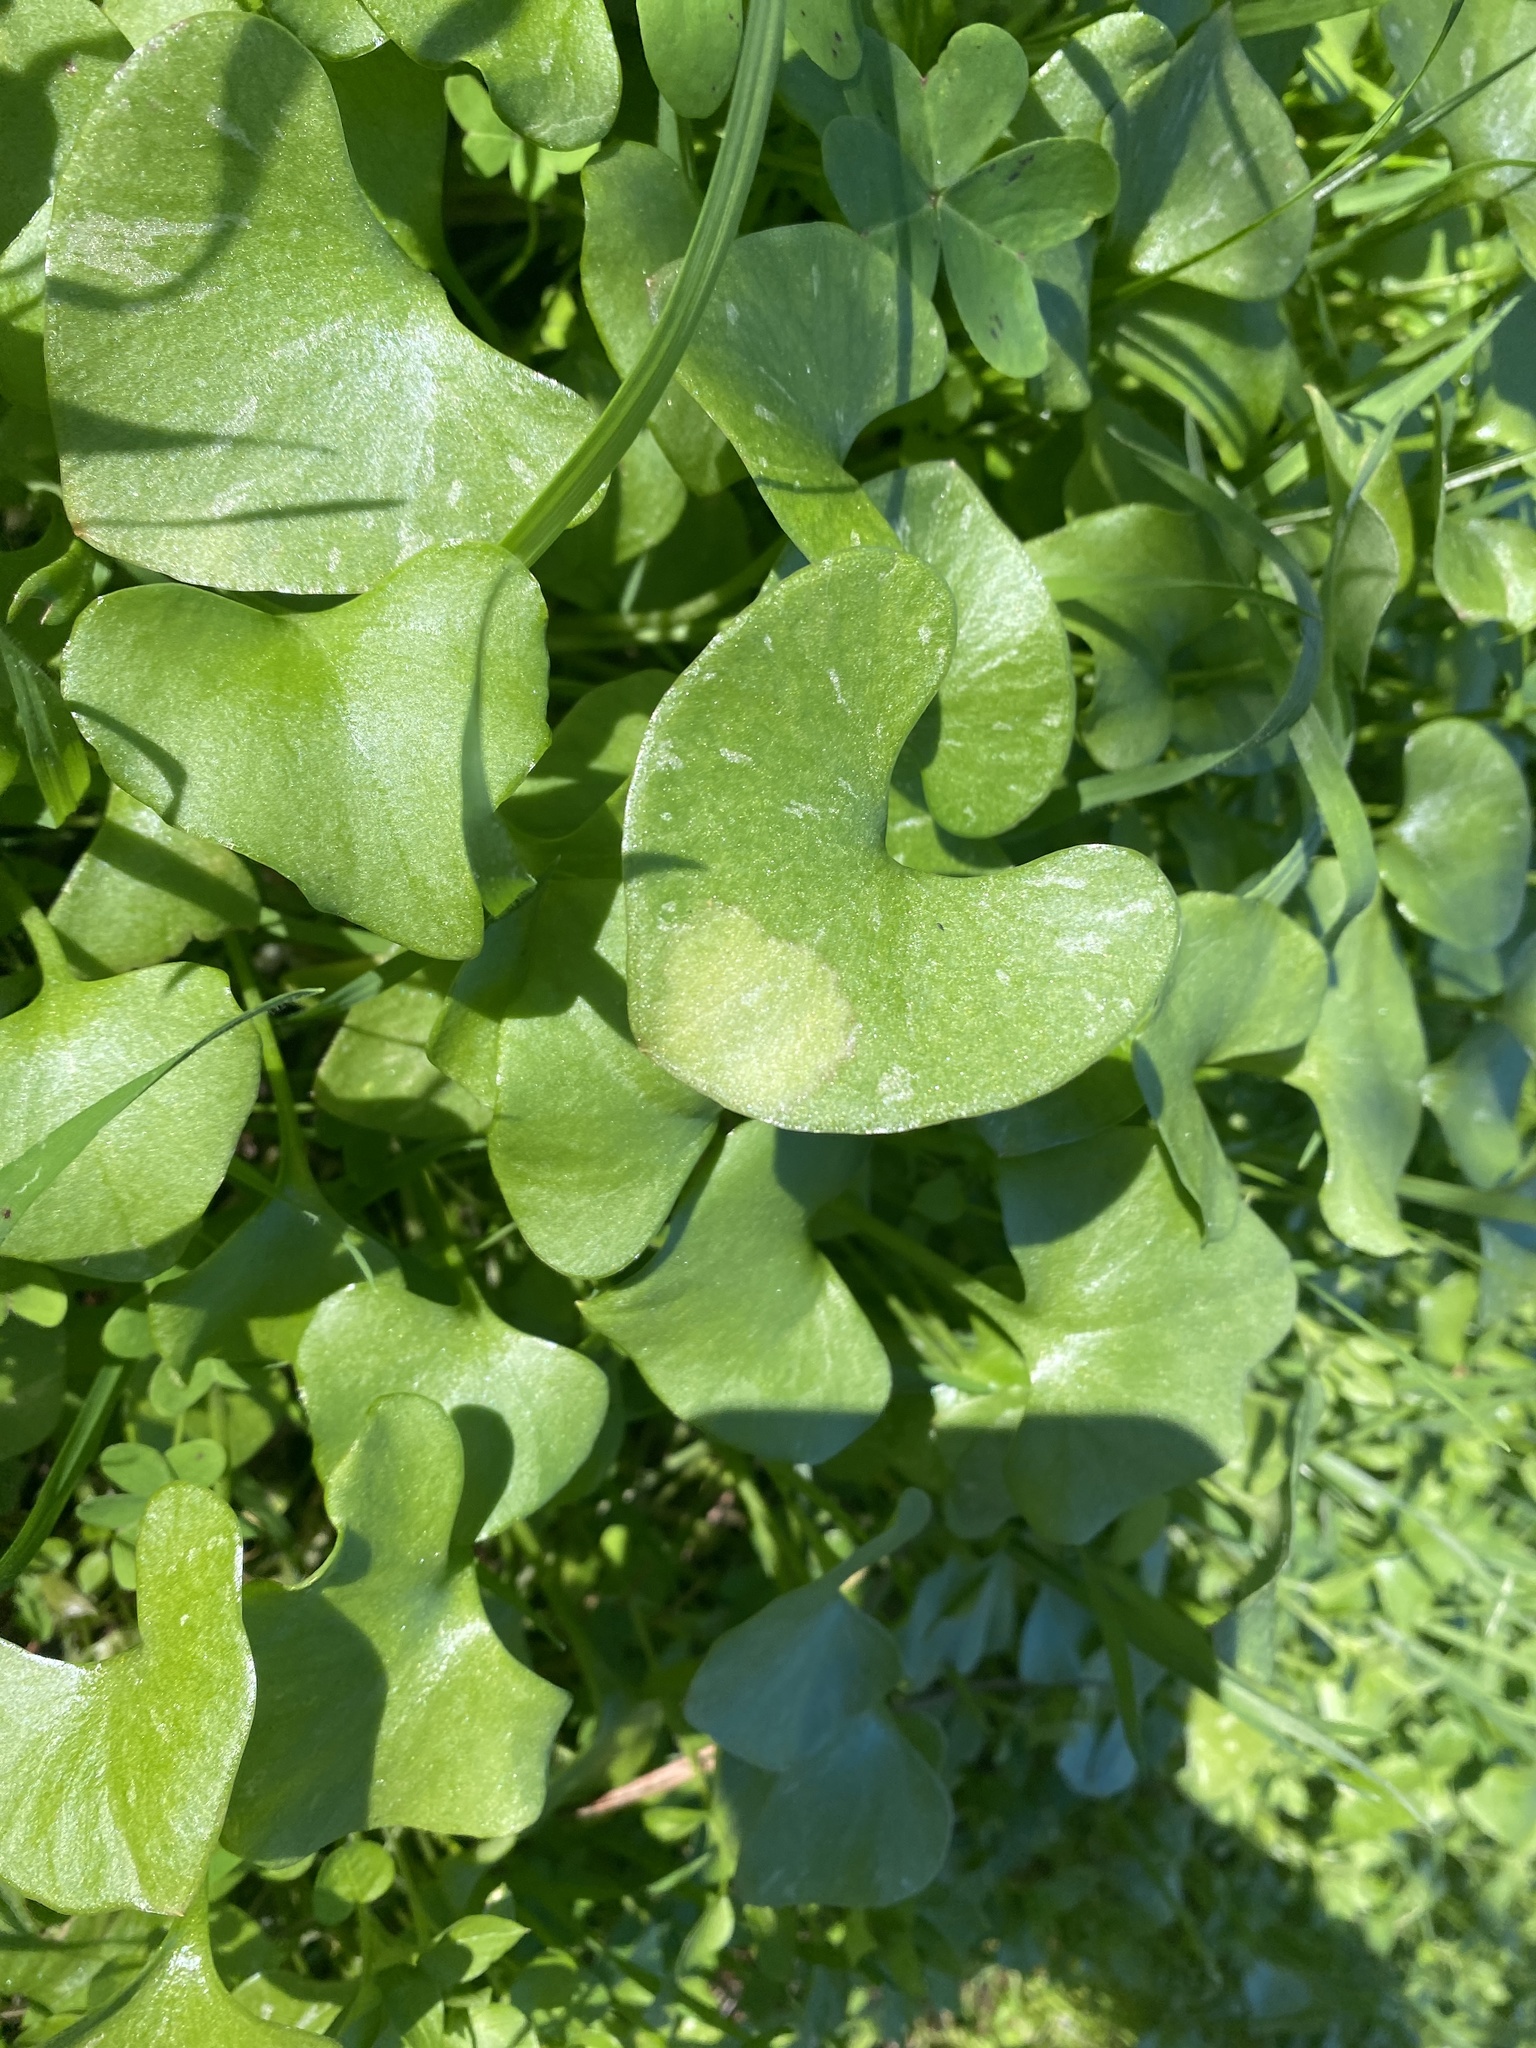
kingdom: Plantae
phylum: Tracheophyta
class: Magnoliopsida
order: Caryophyllales
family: Montiaceae
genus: Claytonia
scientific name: Claytonia perfoliata
